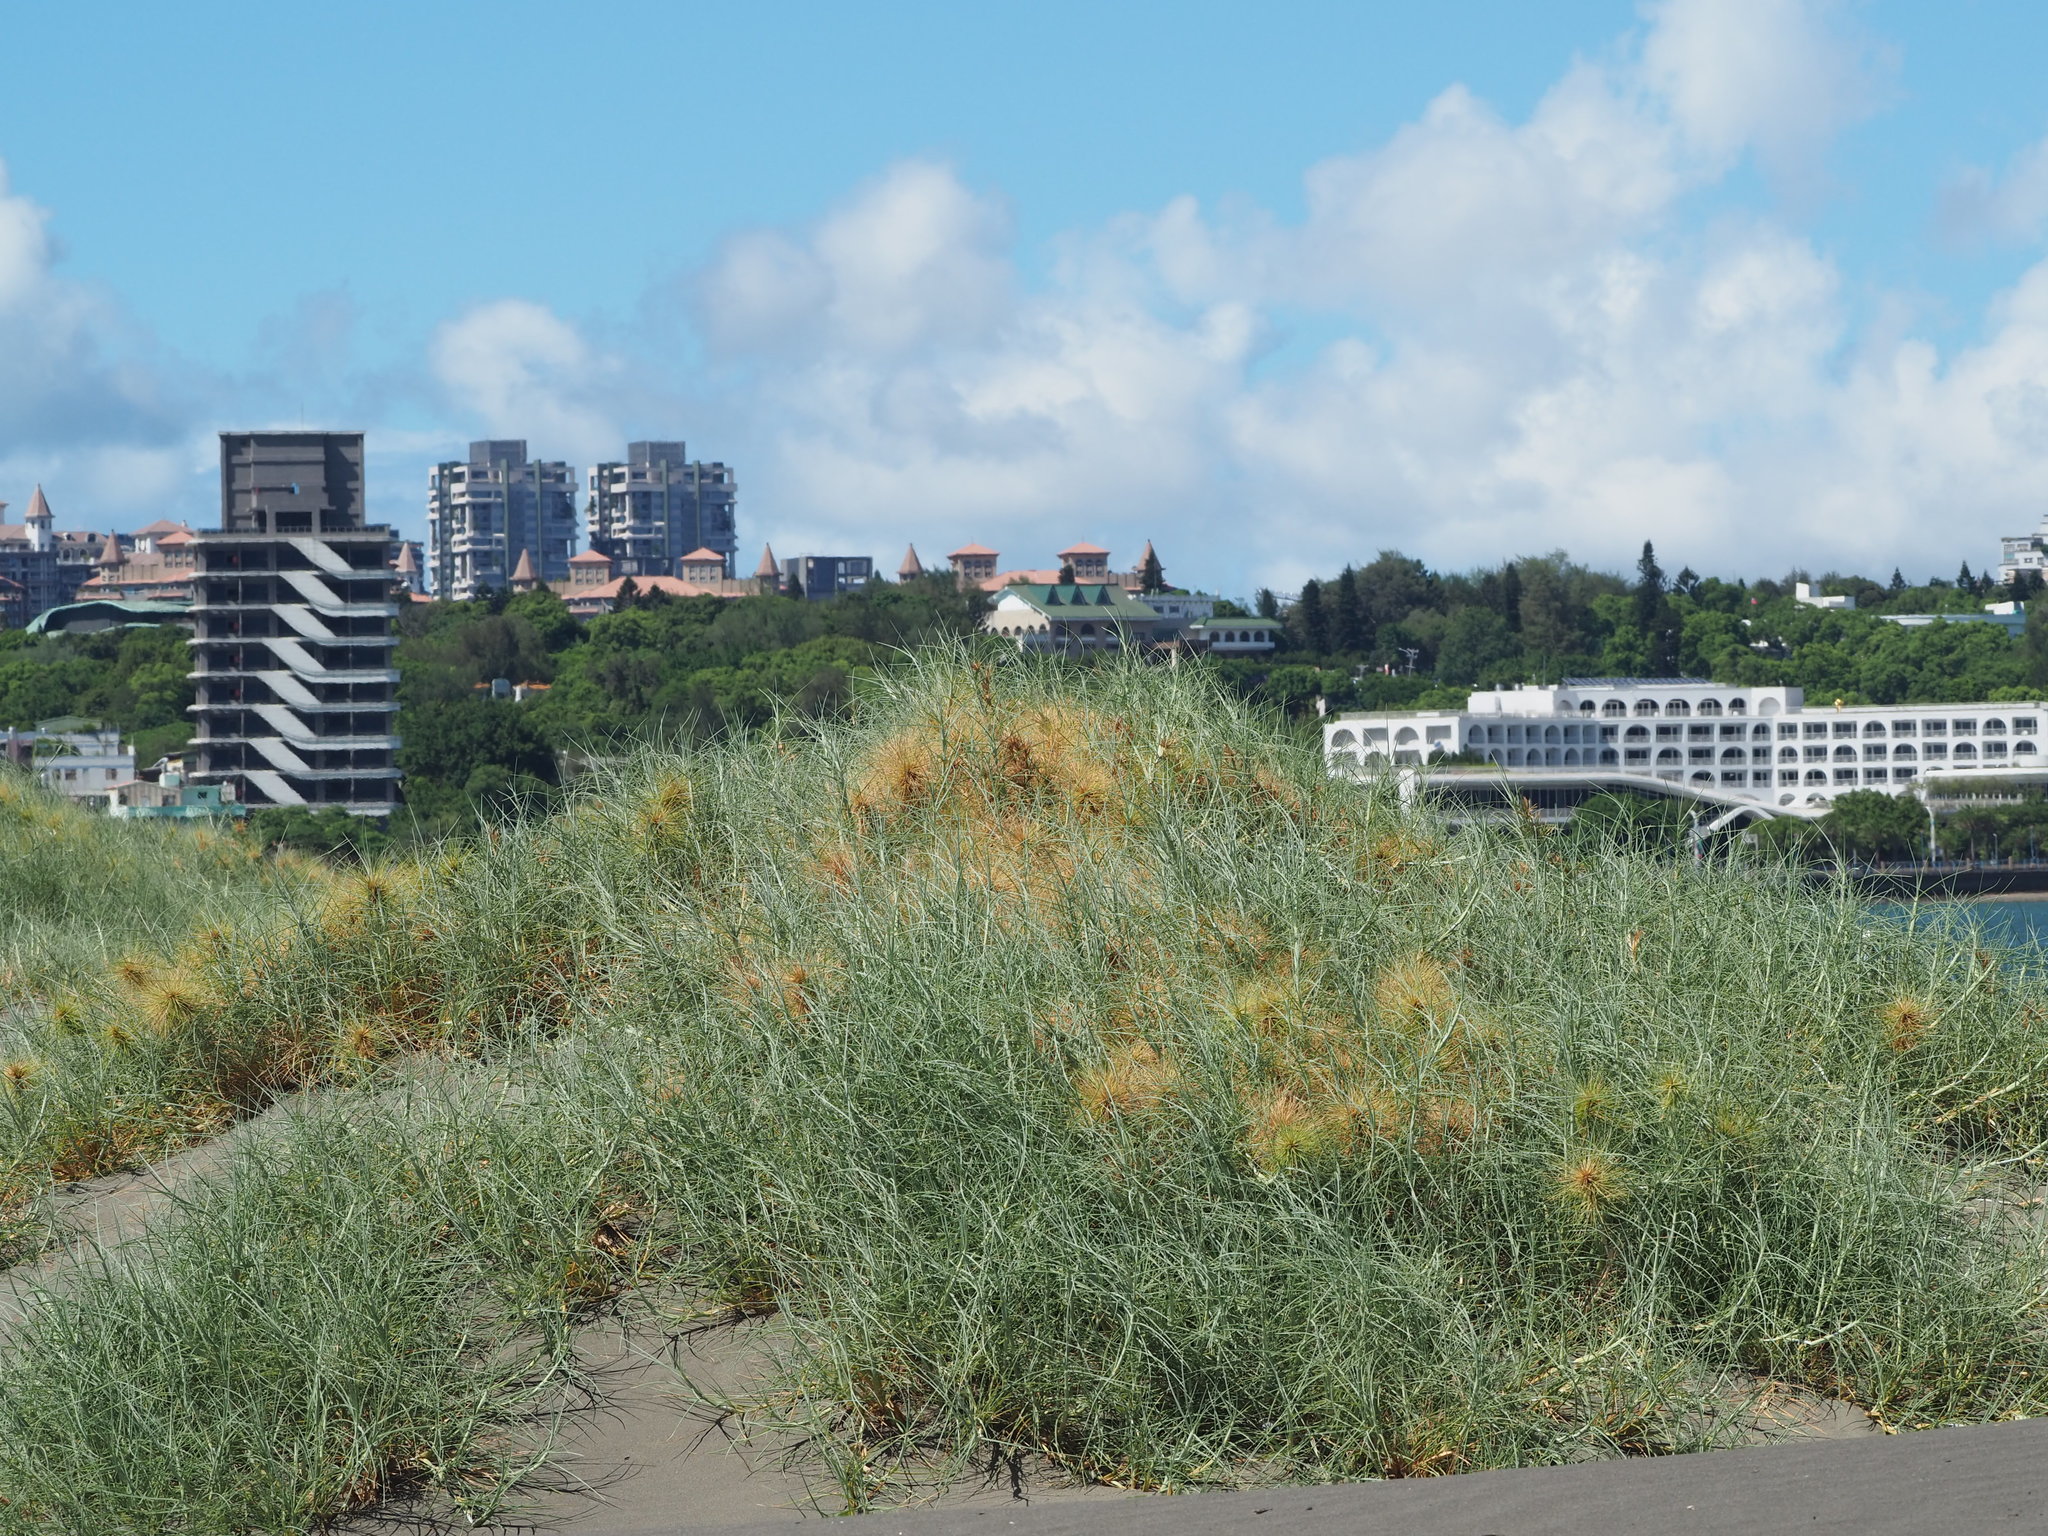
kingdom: Plantae
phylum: Tracheophyta
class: Liliopsida
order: Poales
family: Poaceae
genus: Spinifex
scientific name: Spinifex littoreus
